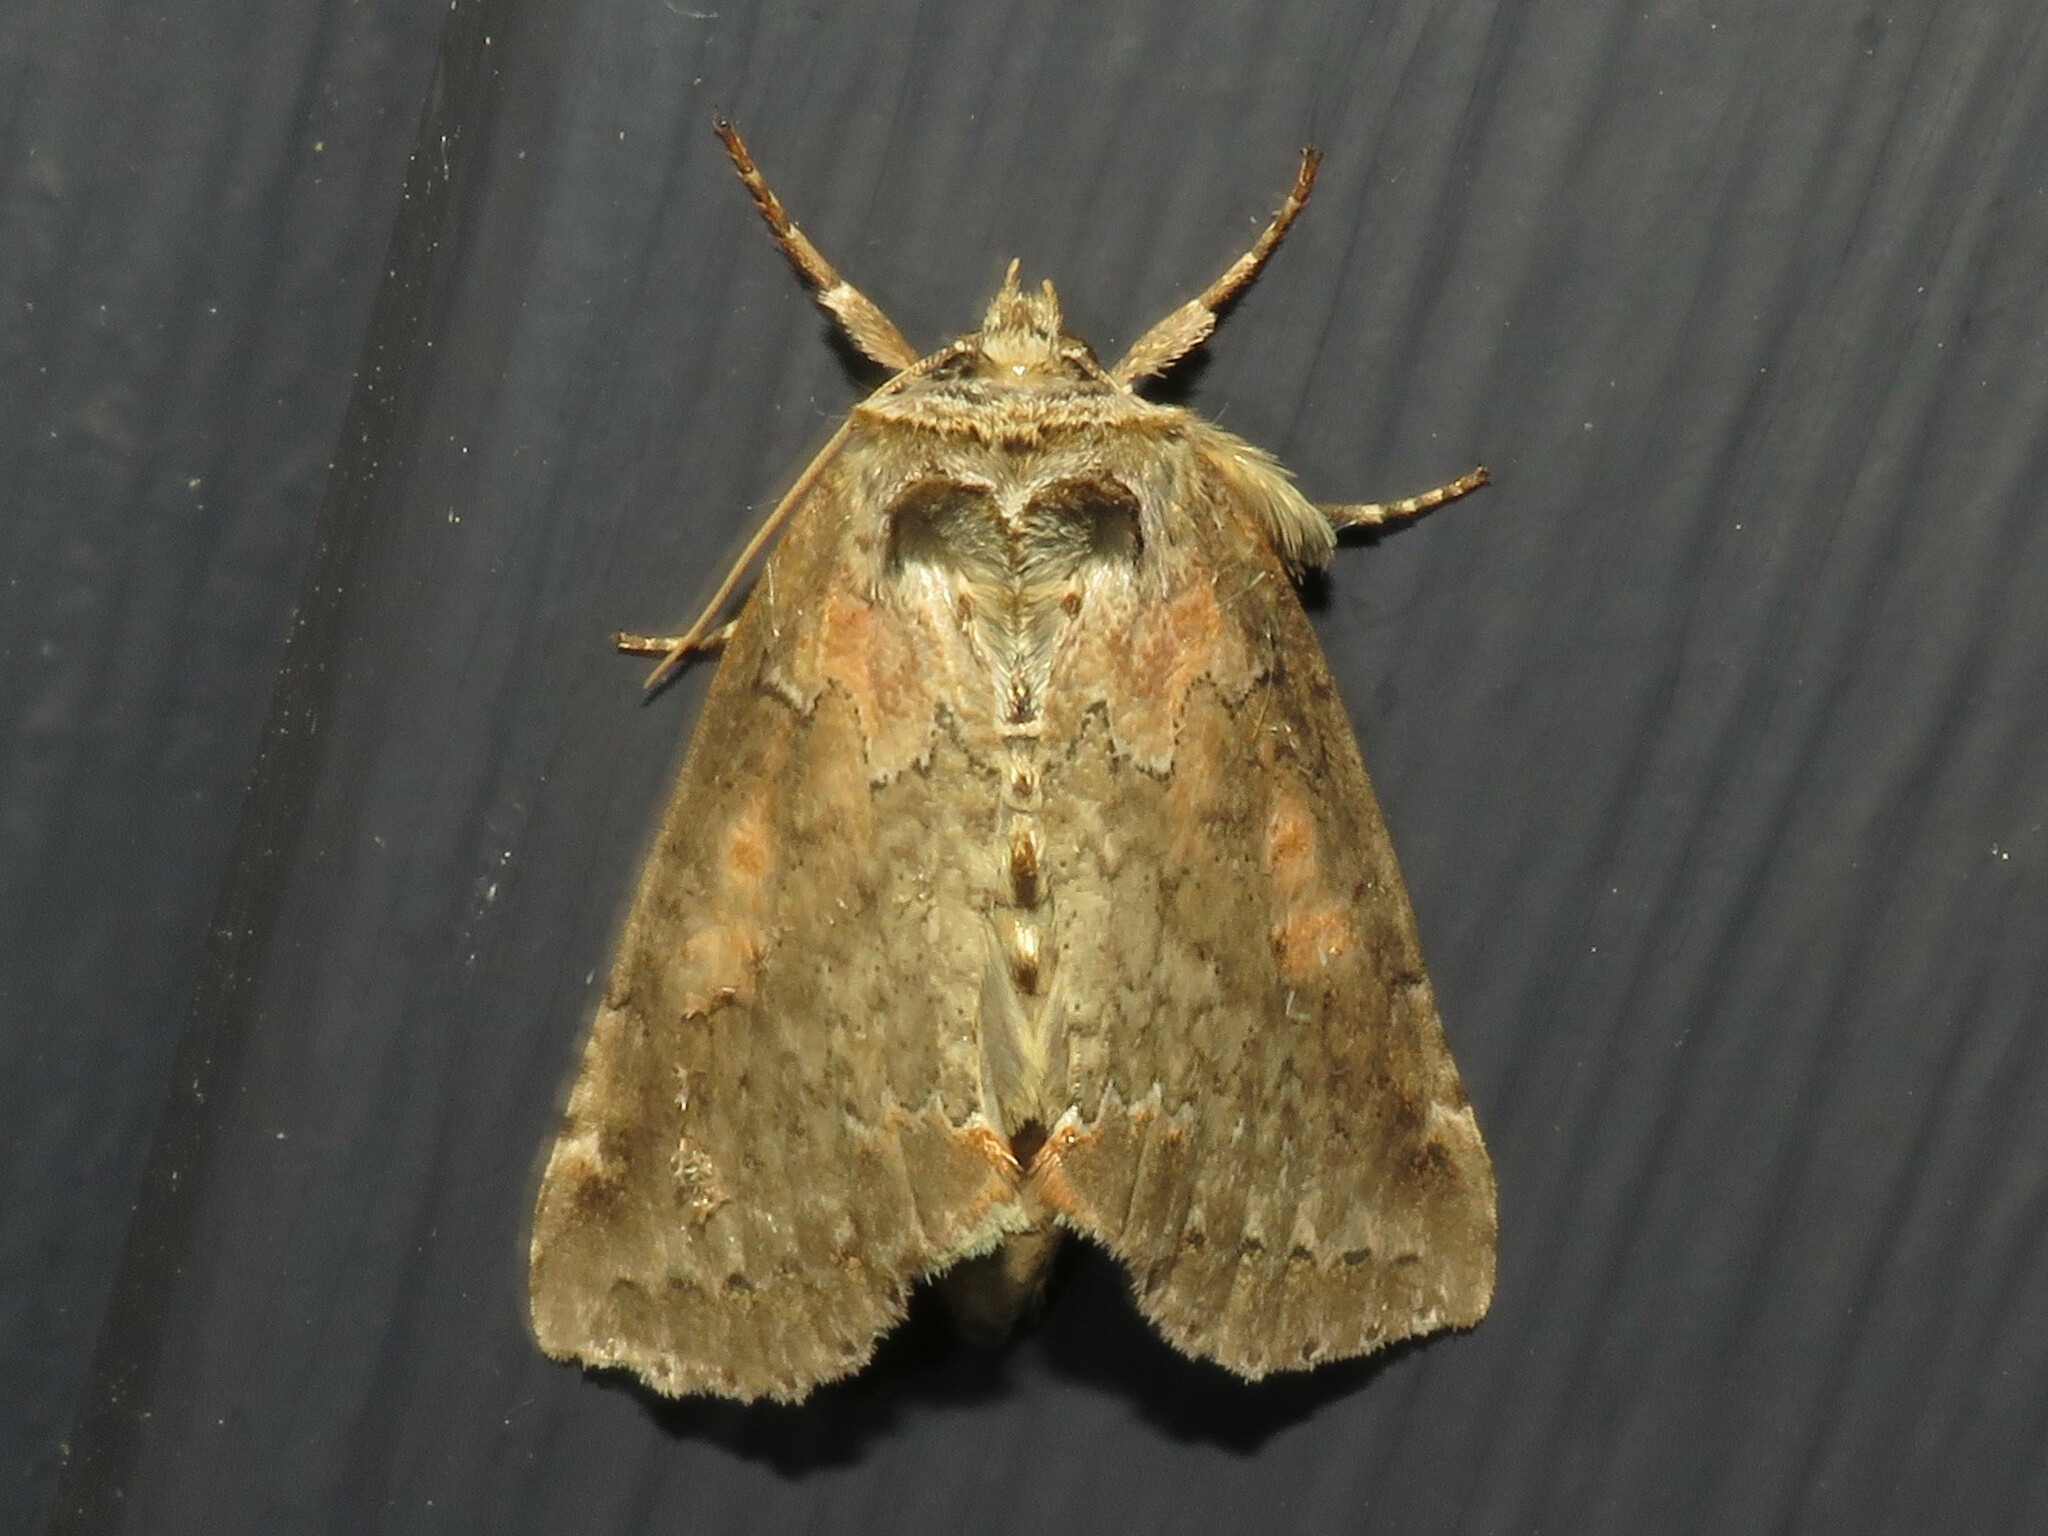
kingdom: Animalia
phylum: Arthropoda
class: Insecta
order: Lepidoptera
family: Drepanidae
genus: Pseudothyatira
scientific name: Pseudothyatira cymatophoroides
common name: Tufted thyatirid moth
